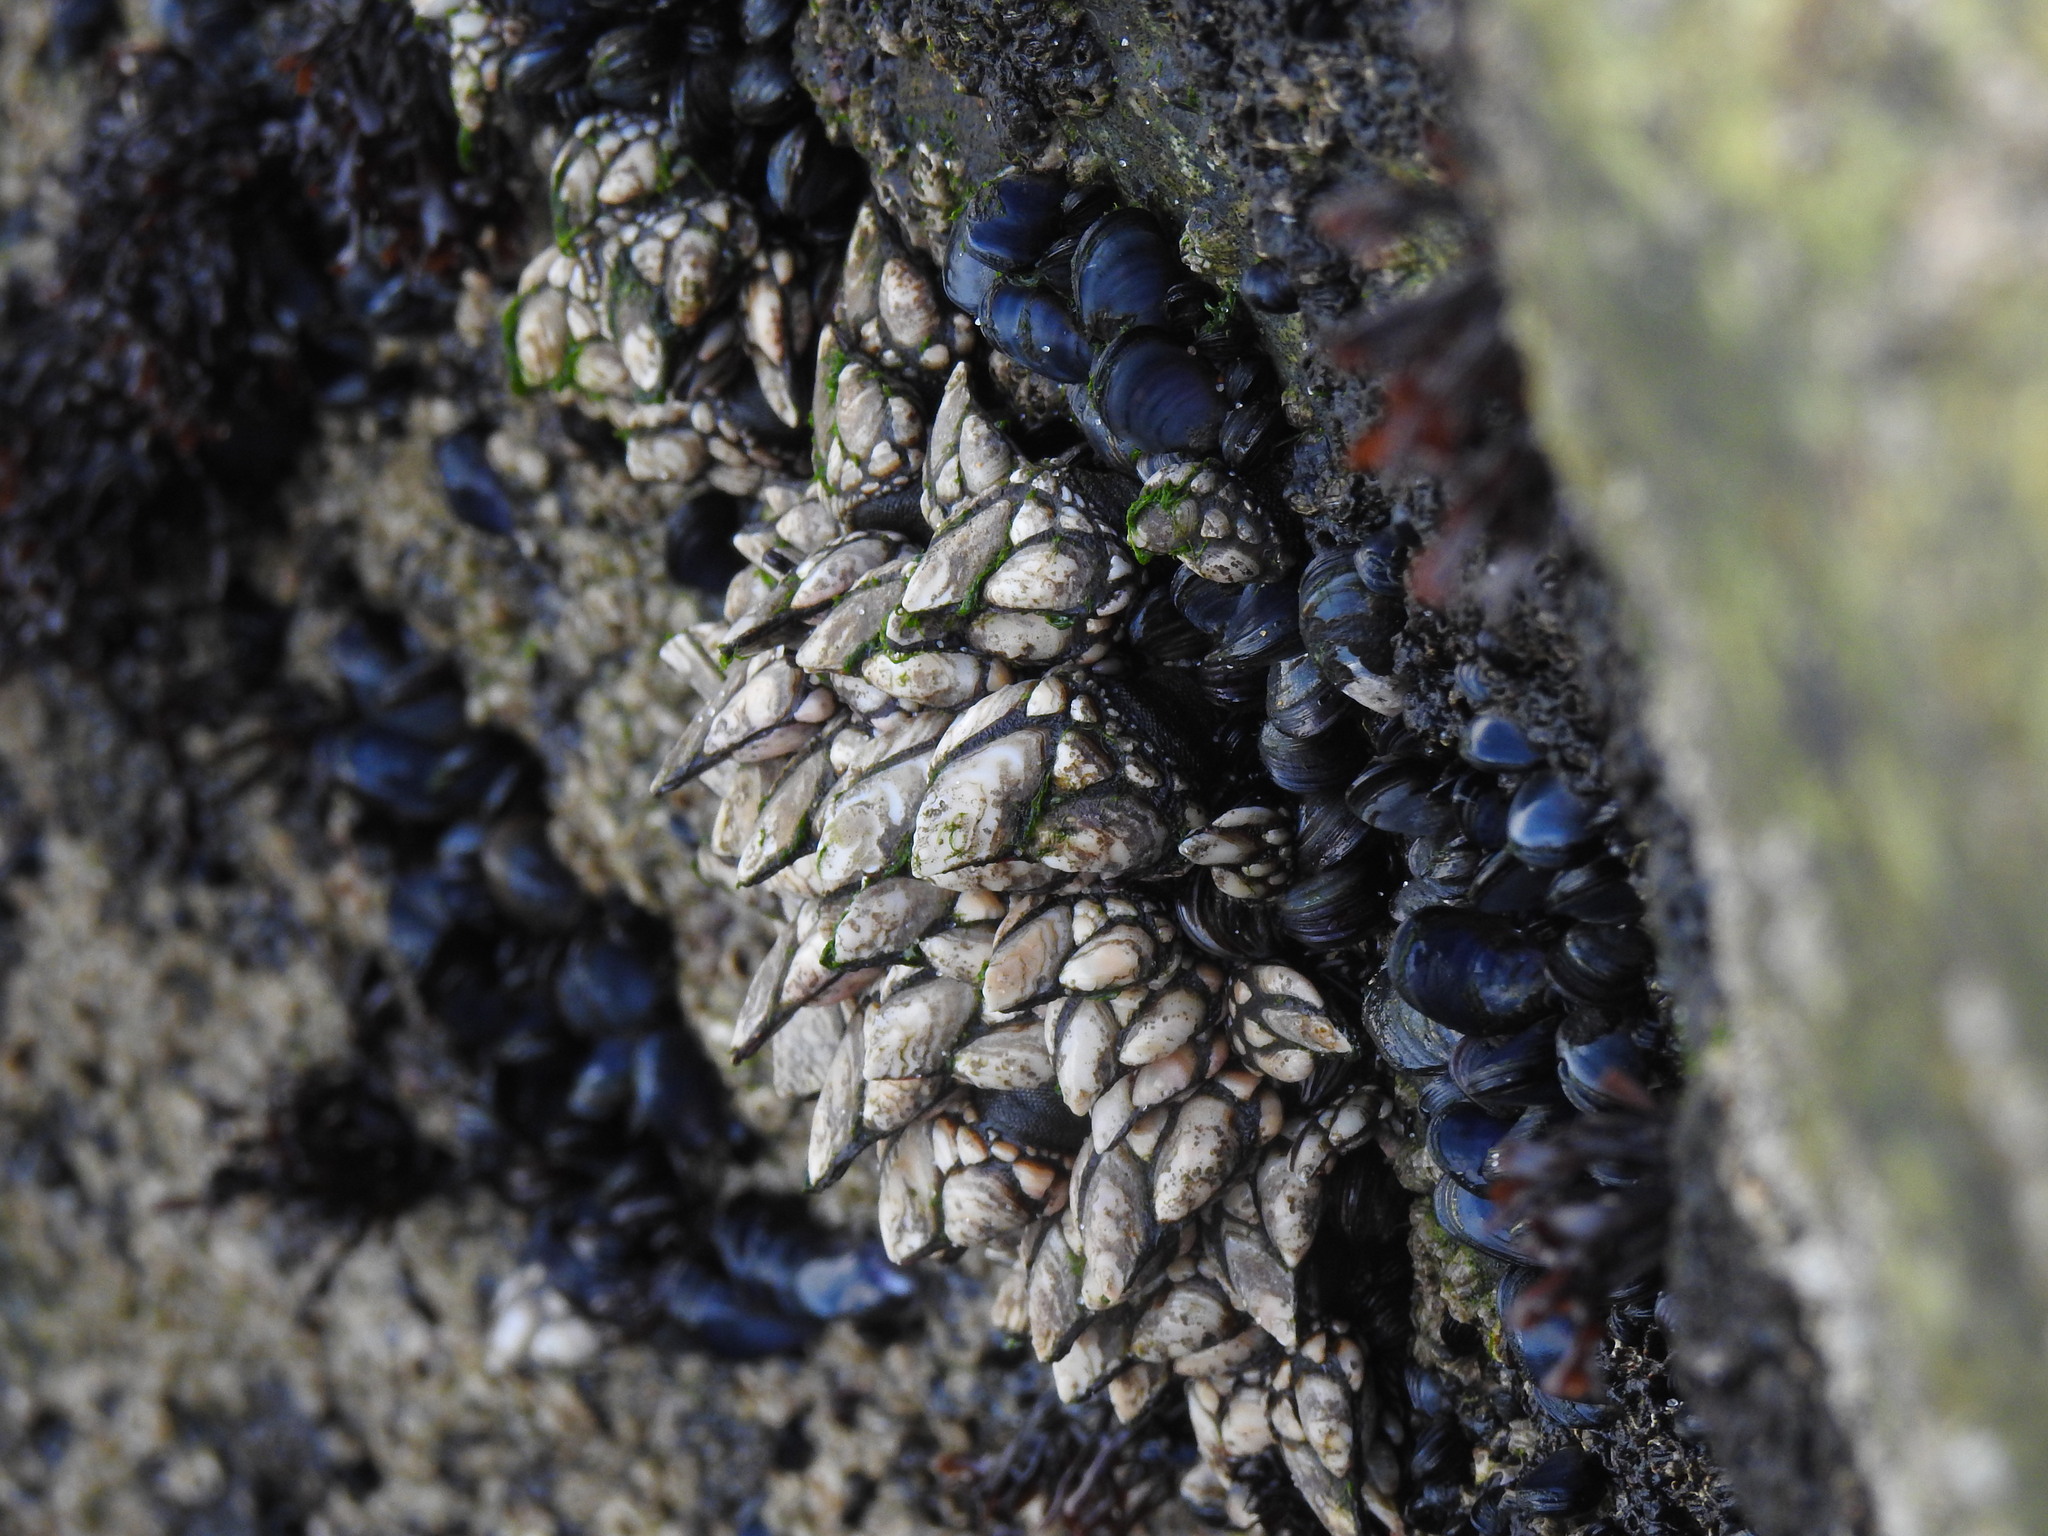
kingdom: Animalia
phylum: Arthropoda
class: Maxillopoda
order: Pedunculata
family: Pollicipedidae
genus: Pollicipes
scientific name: Pollicipes pollicipes
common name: Gooseneck barnacle
